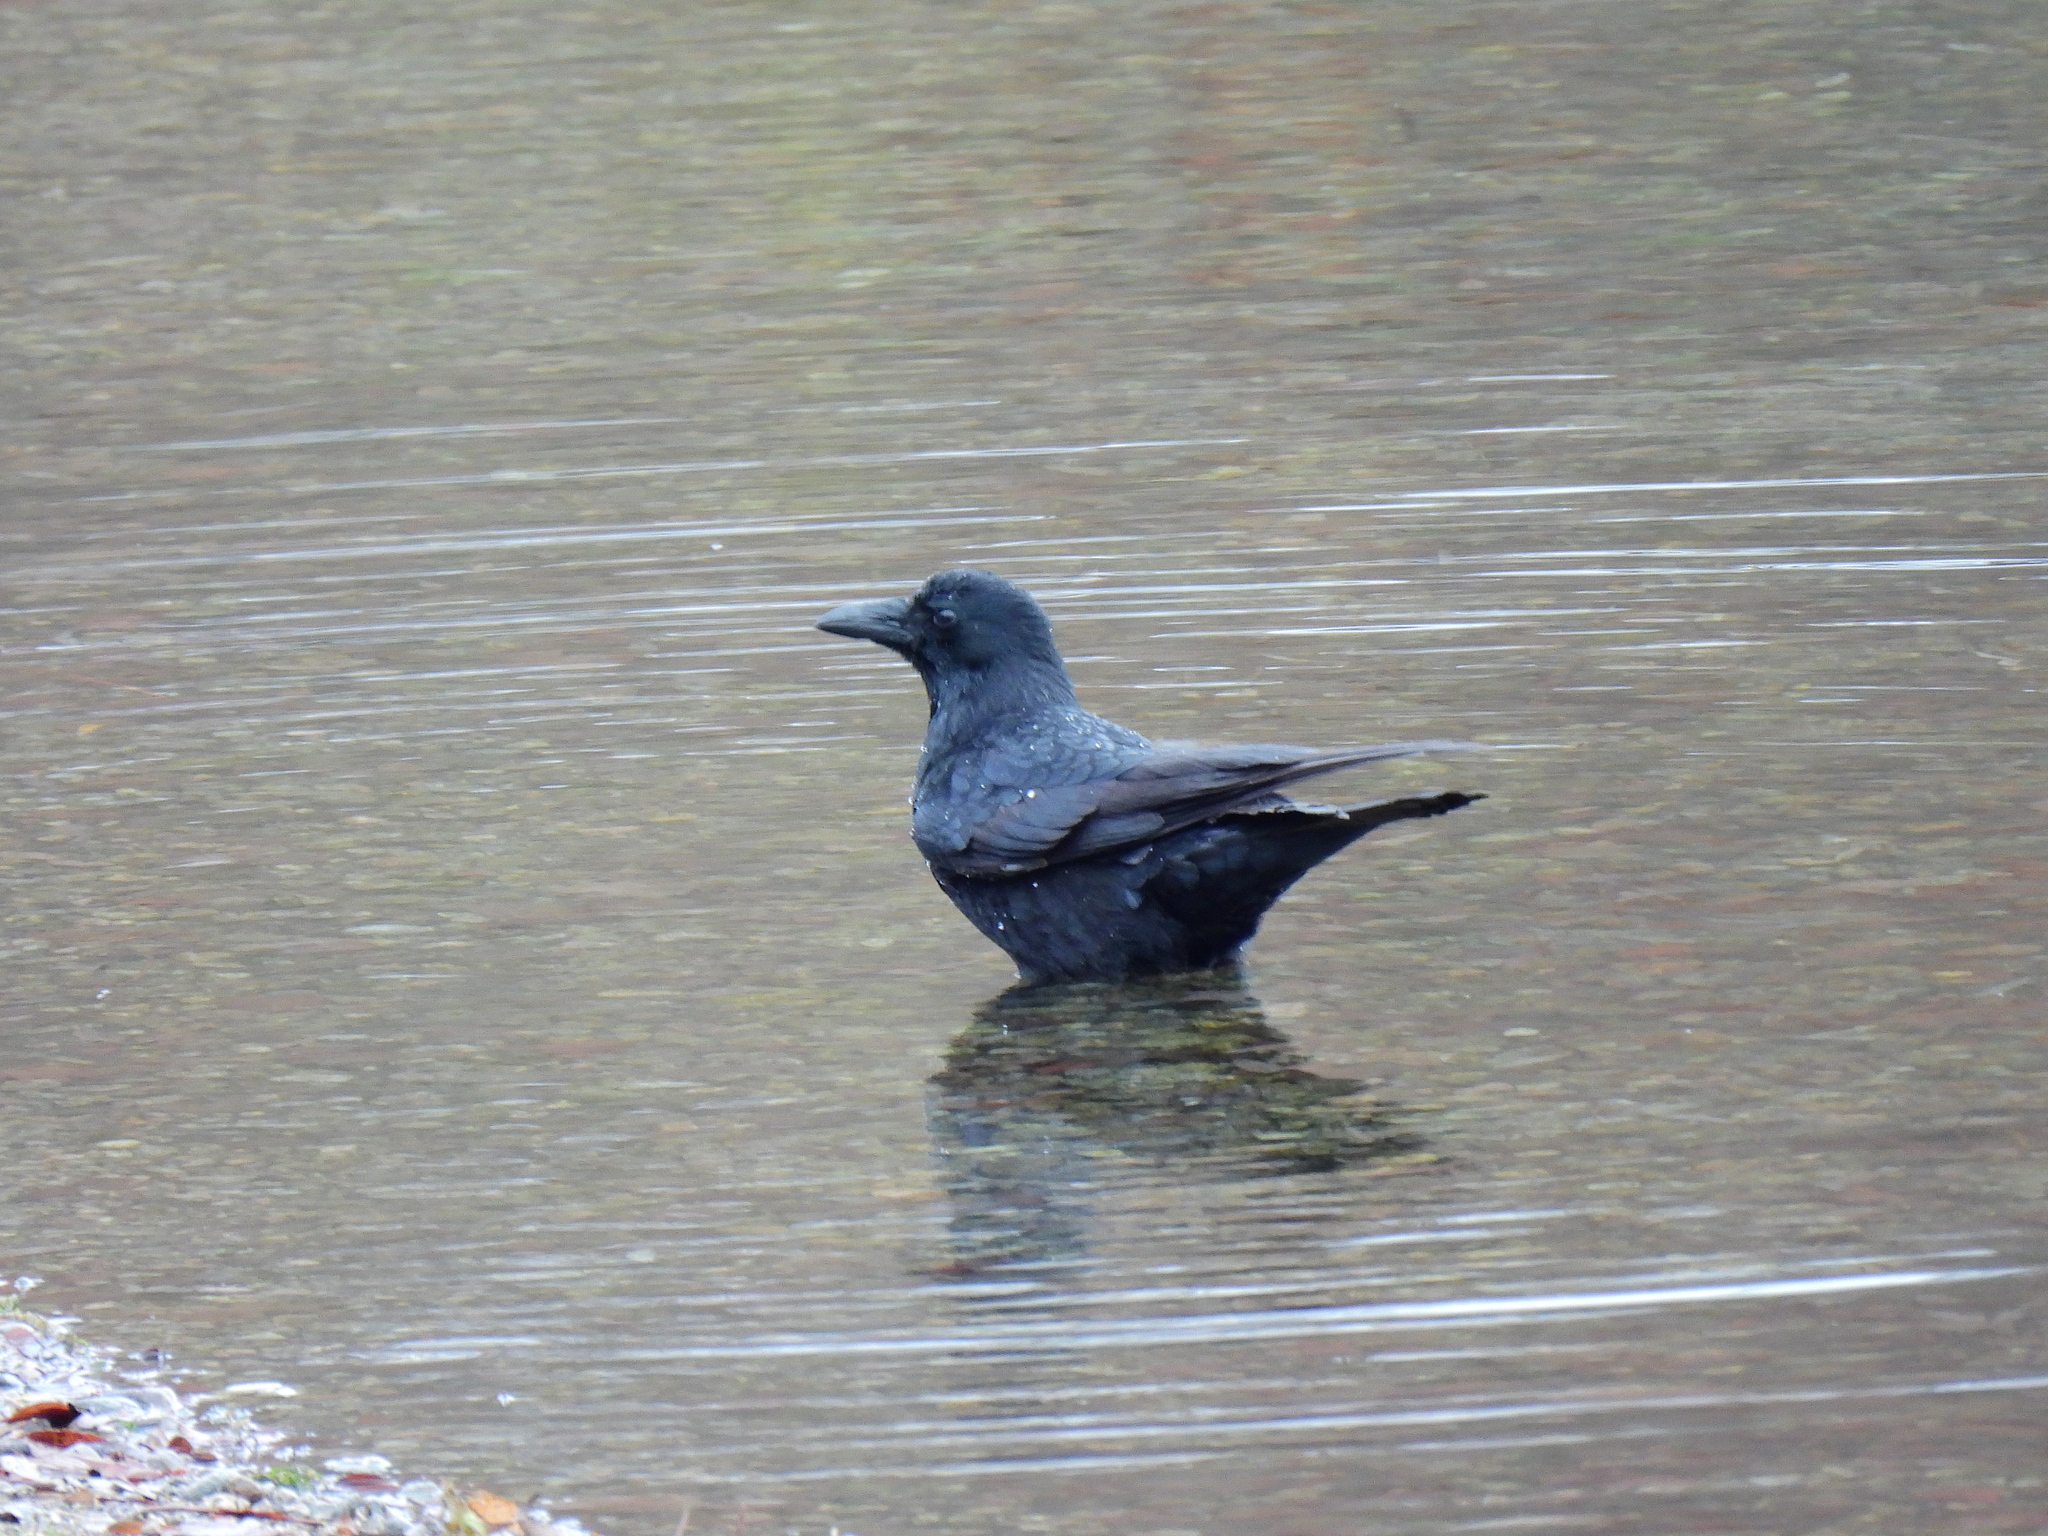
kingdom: Animalia
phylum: Chordata
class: Aves
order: Passeriformes
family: Corvidae
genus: Corvus
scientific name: Corvus corone
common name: Carrion crow
